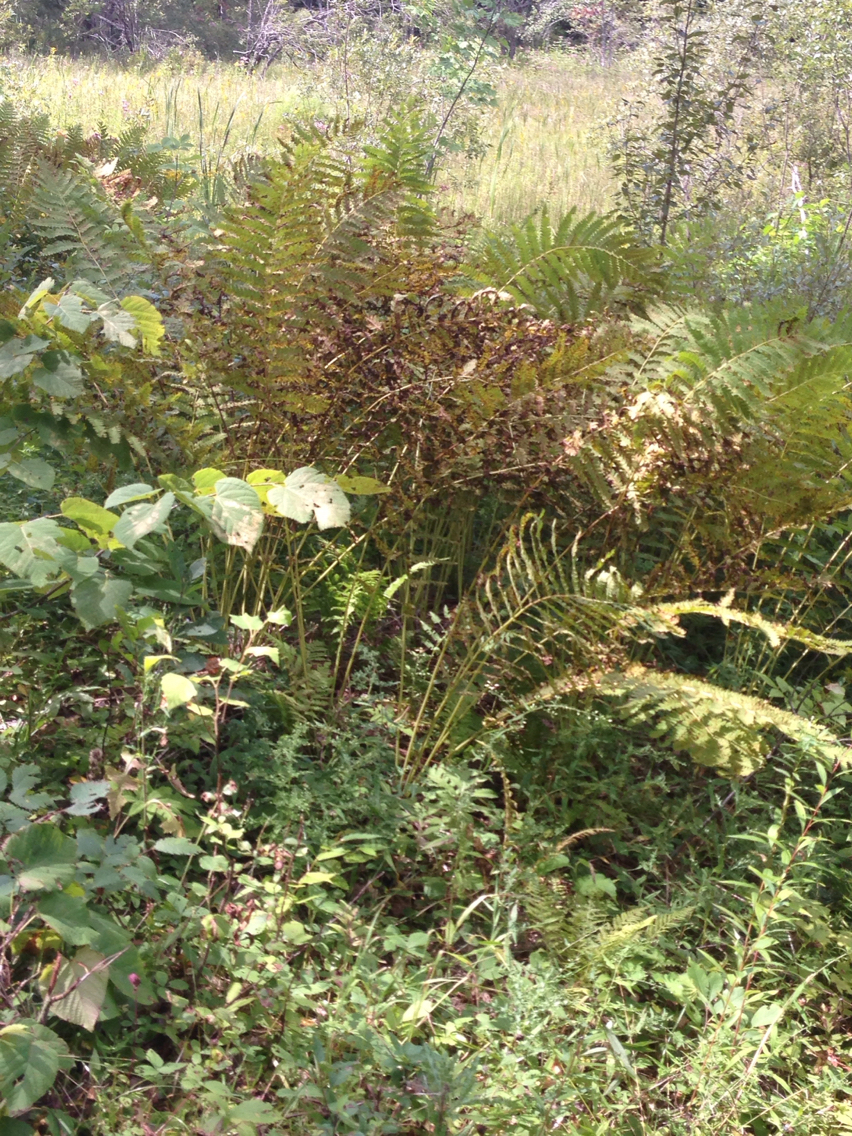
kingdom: Plantae
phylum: Tracheophyta
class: Polypodiopsida
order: Polypodiales
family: Onocleaceae
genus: Matteuccia
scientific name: Matteuccia struthiopteris
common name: Ostrich fern
